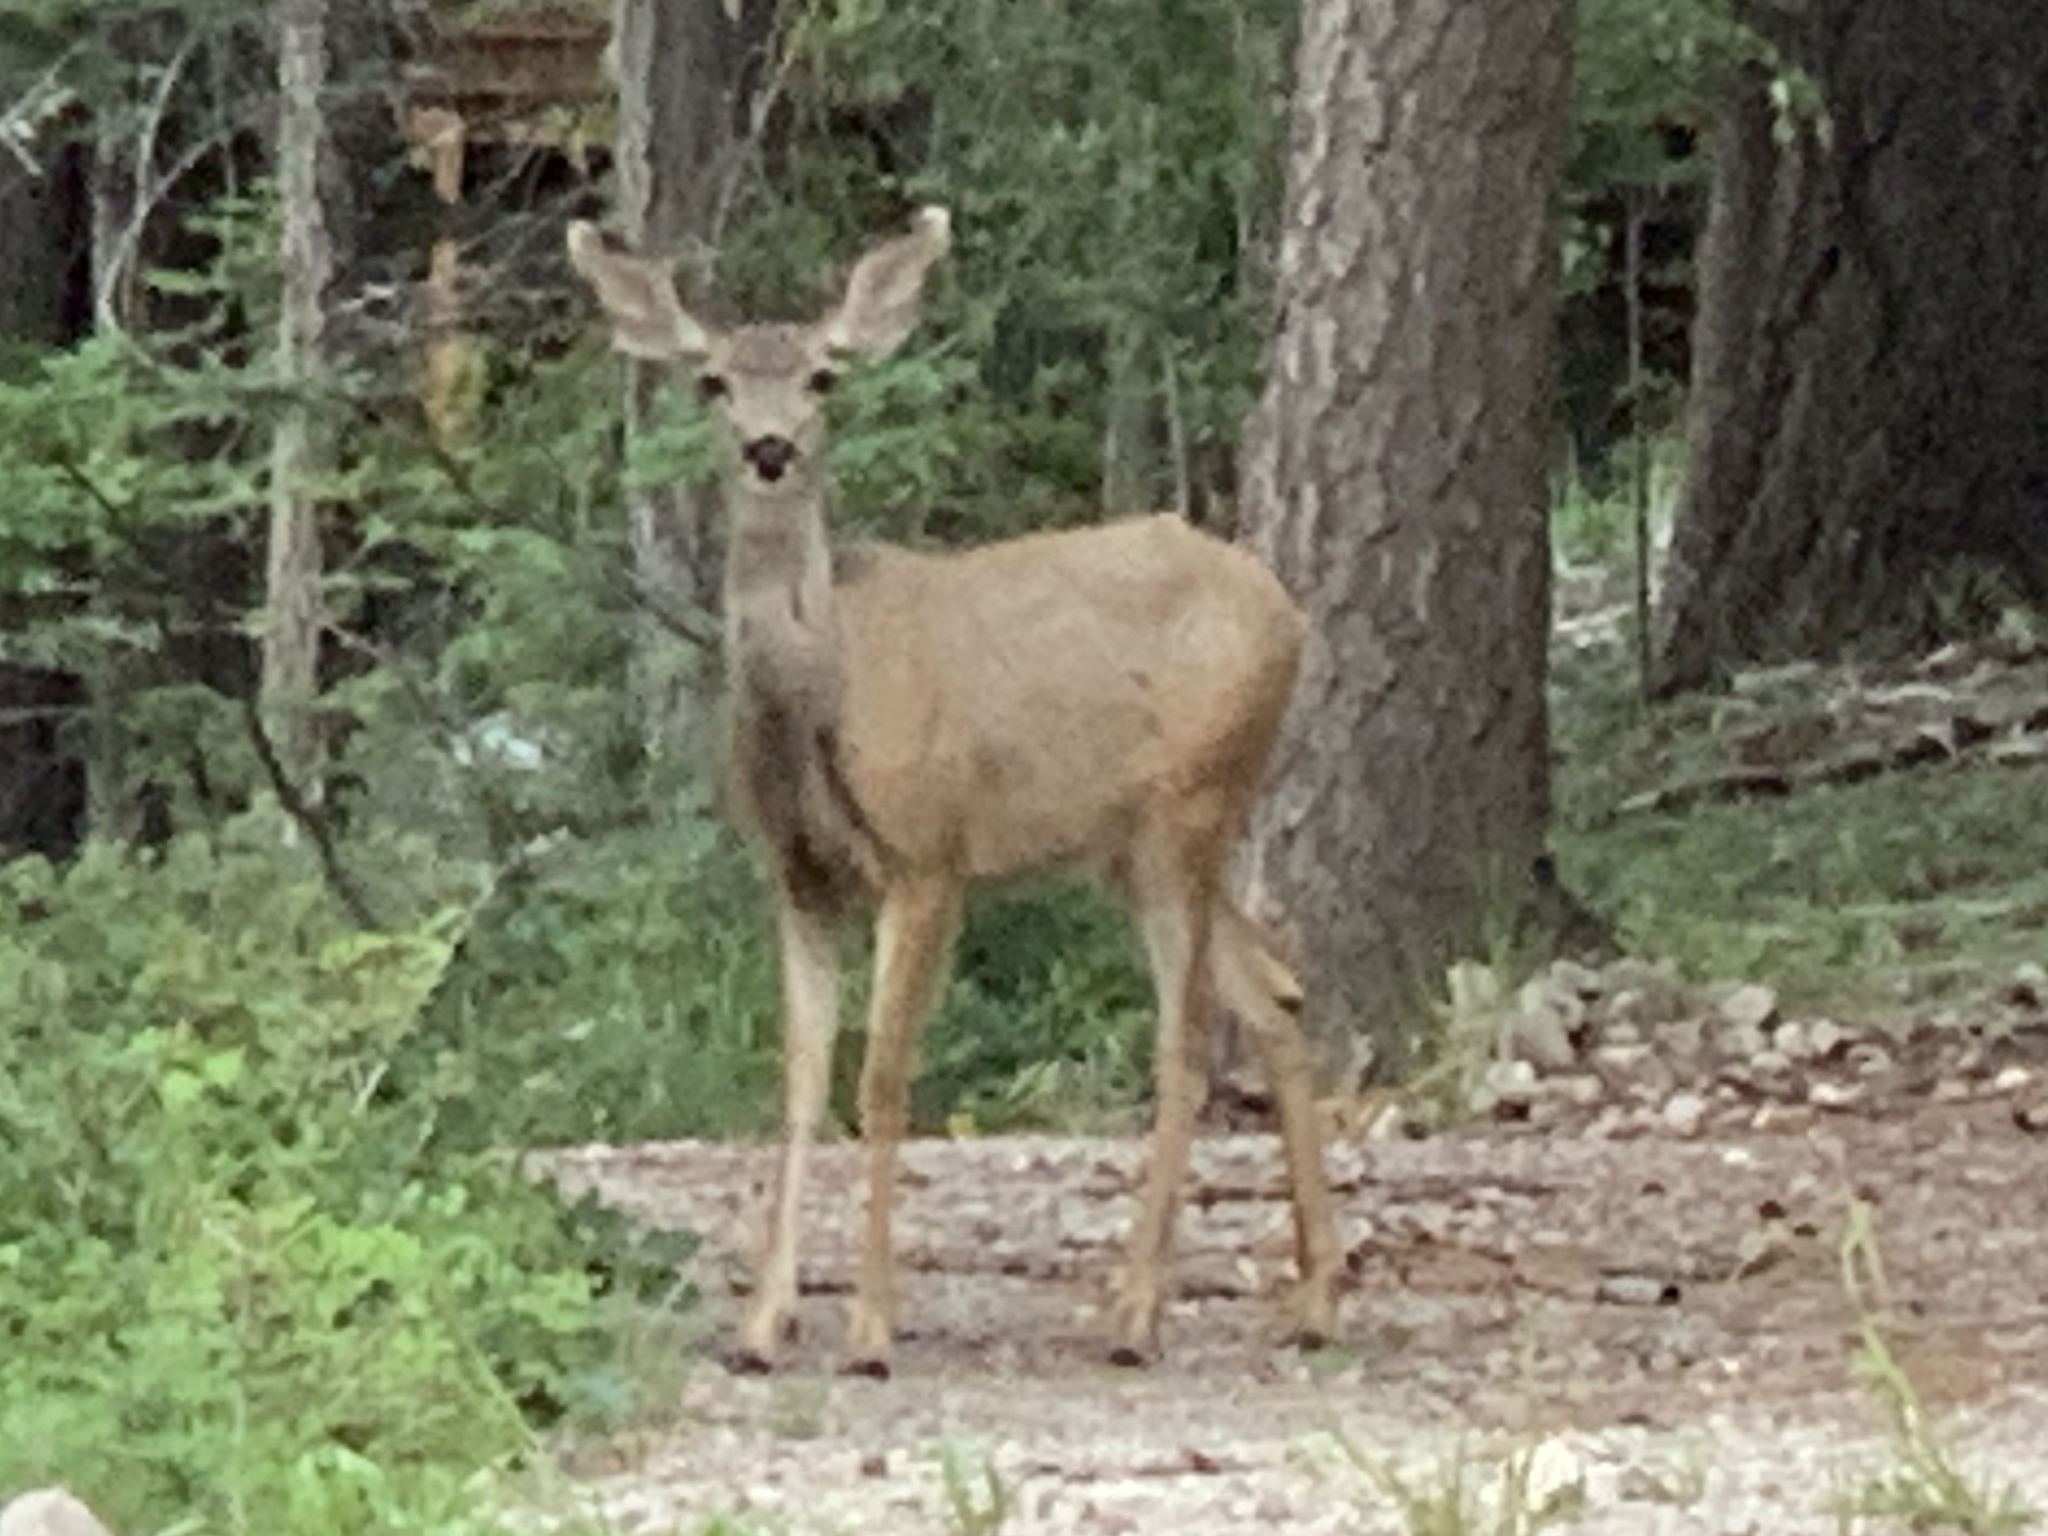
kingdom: Animalia
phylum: Chordata
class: Mammalia
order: Artiodactyla
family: Cervidae
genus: Odocoileus
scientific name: Odocoileus hemionus
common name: Mule deer
